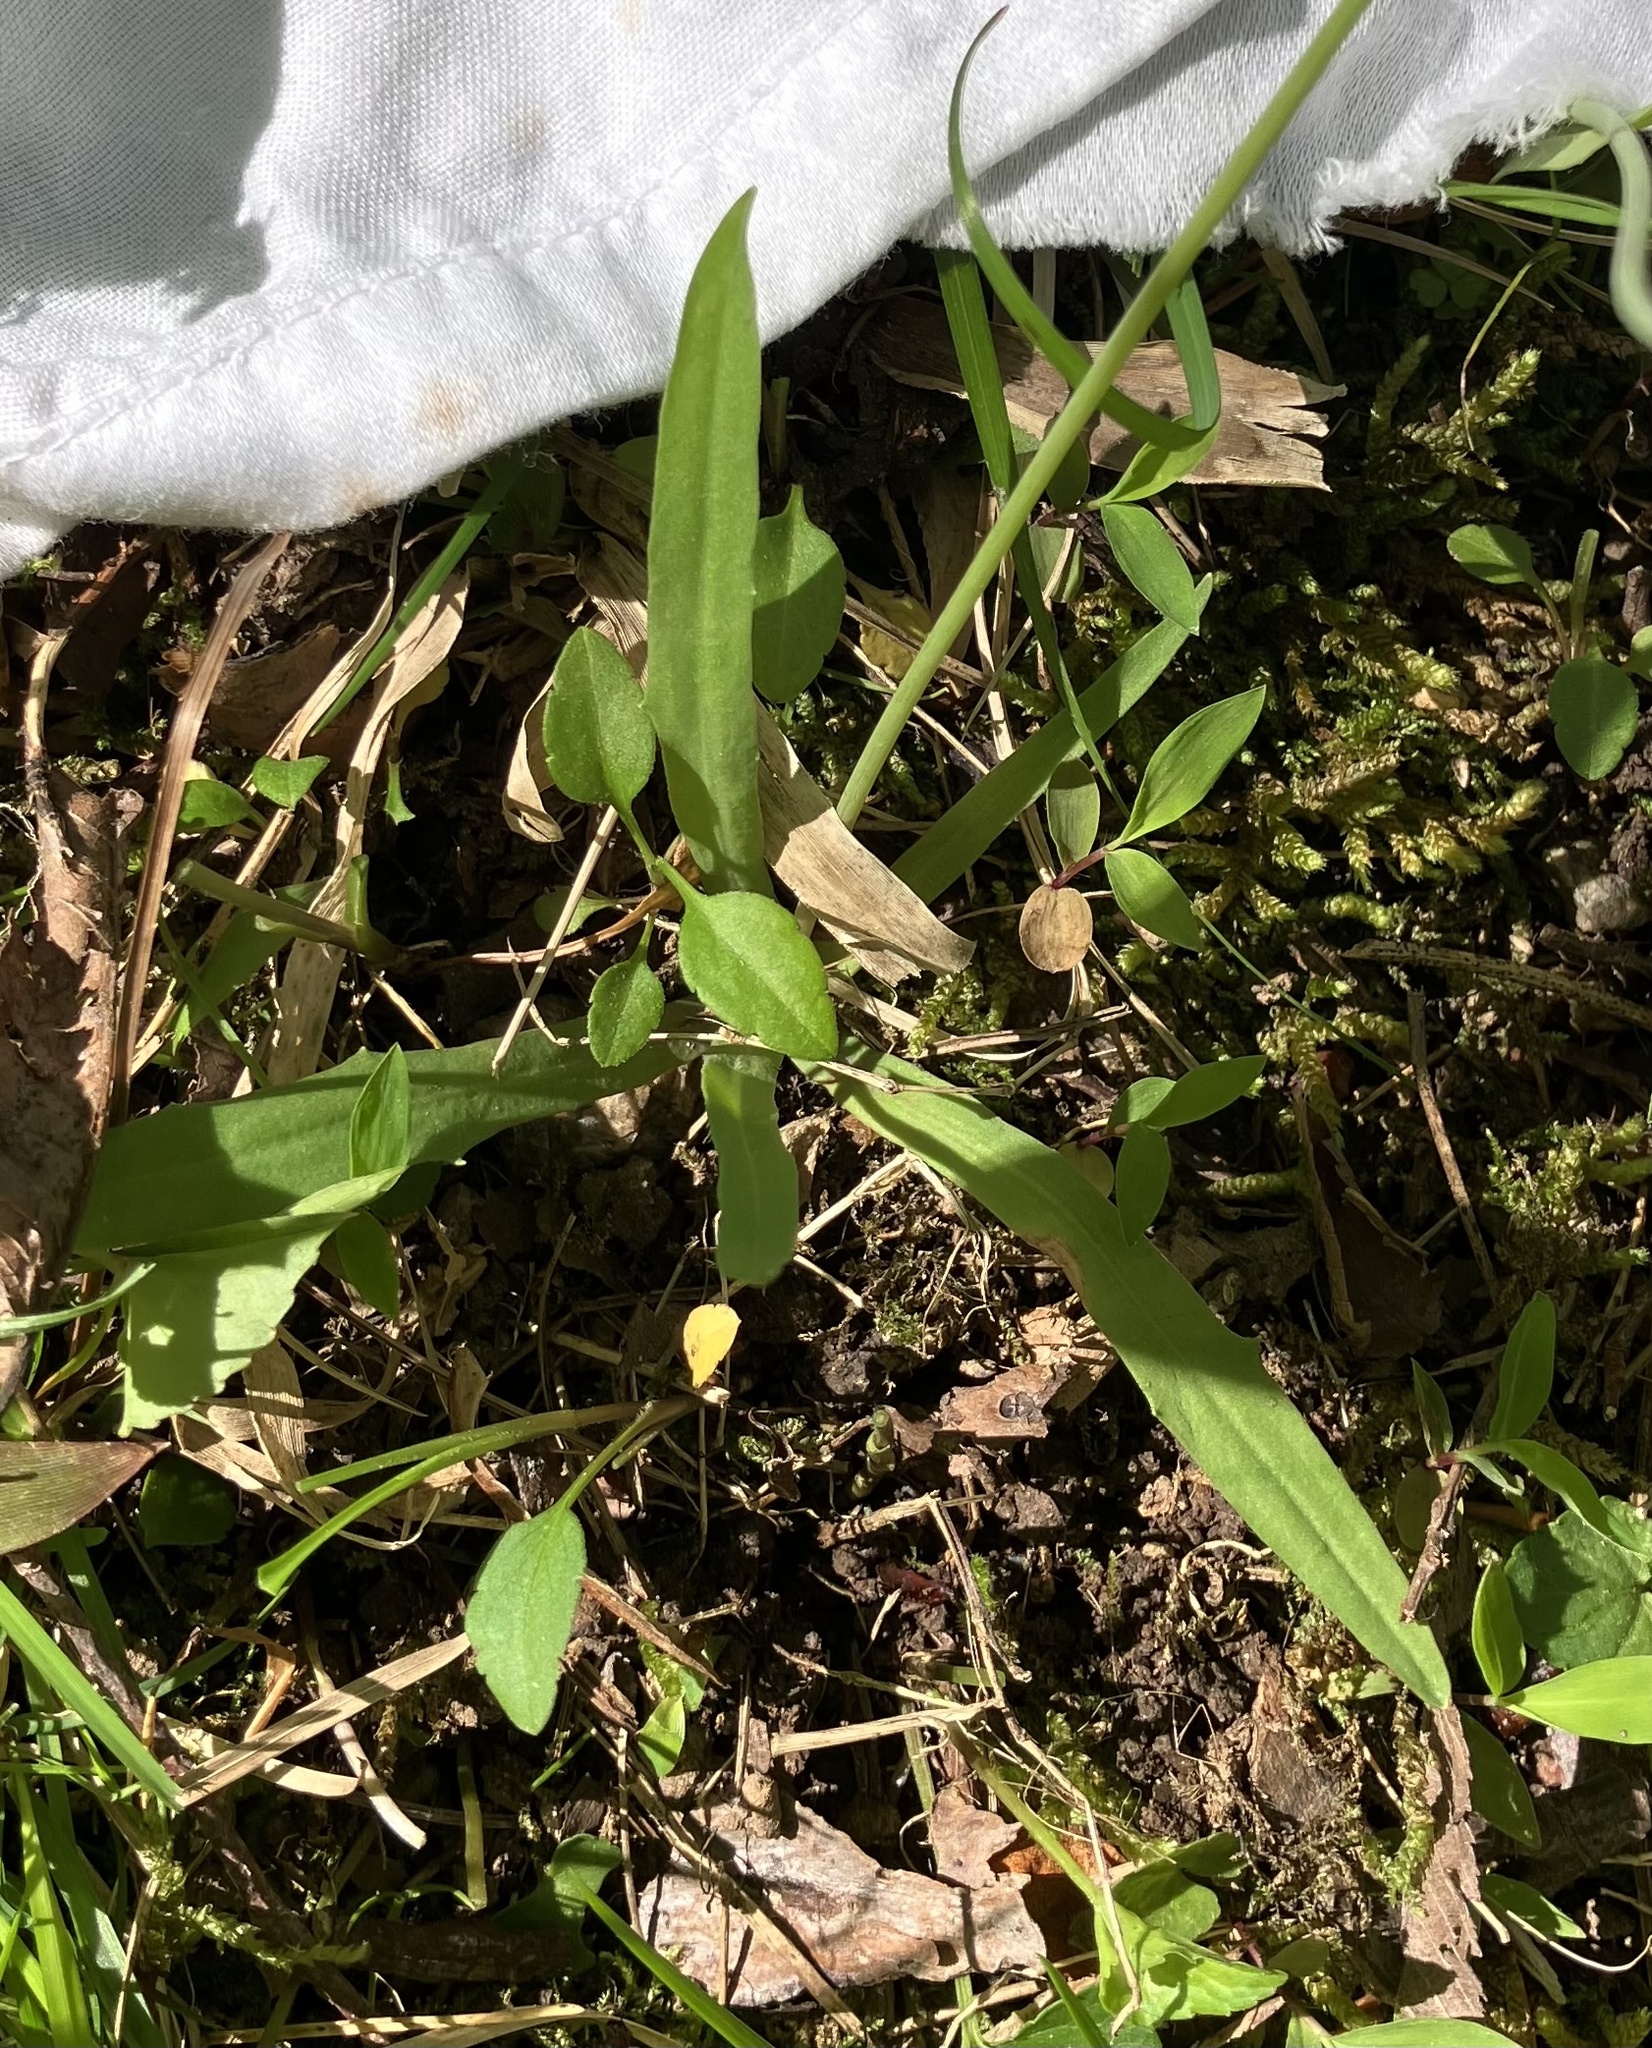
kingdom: Plantae
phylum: Tracheophyta
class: Magnoliopsida
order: Asterales
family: Asteraceae
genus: Krigia
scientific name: Krigia dandelion
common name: Colonial dwarf-dandelion
